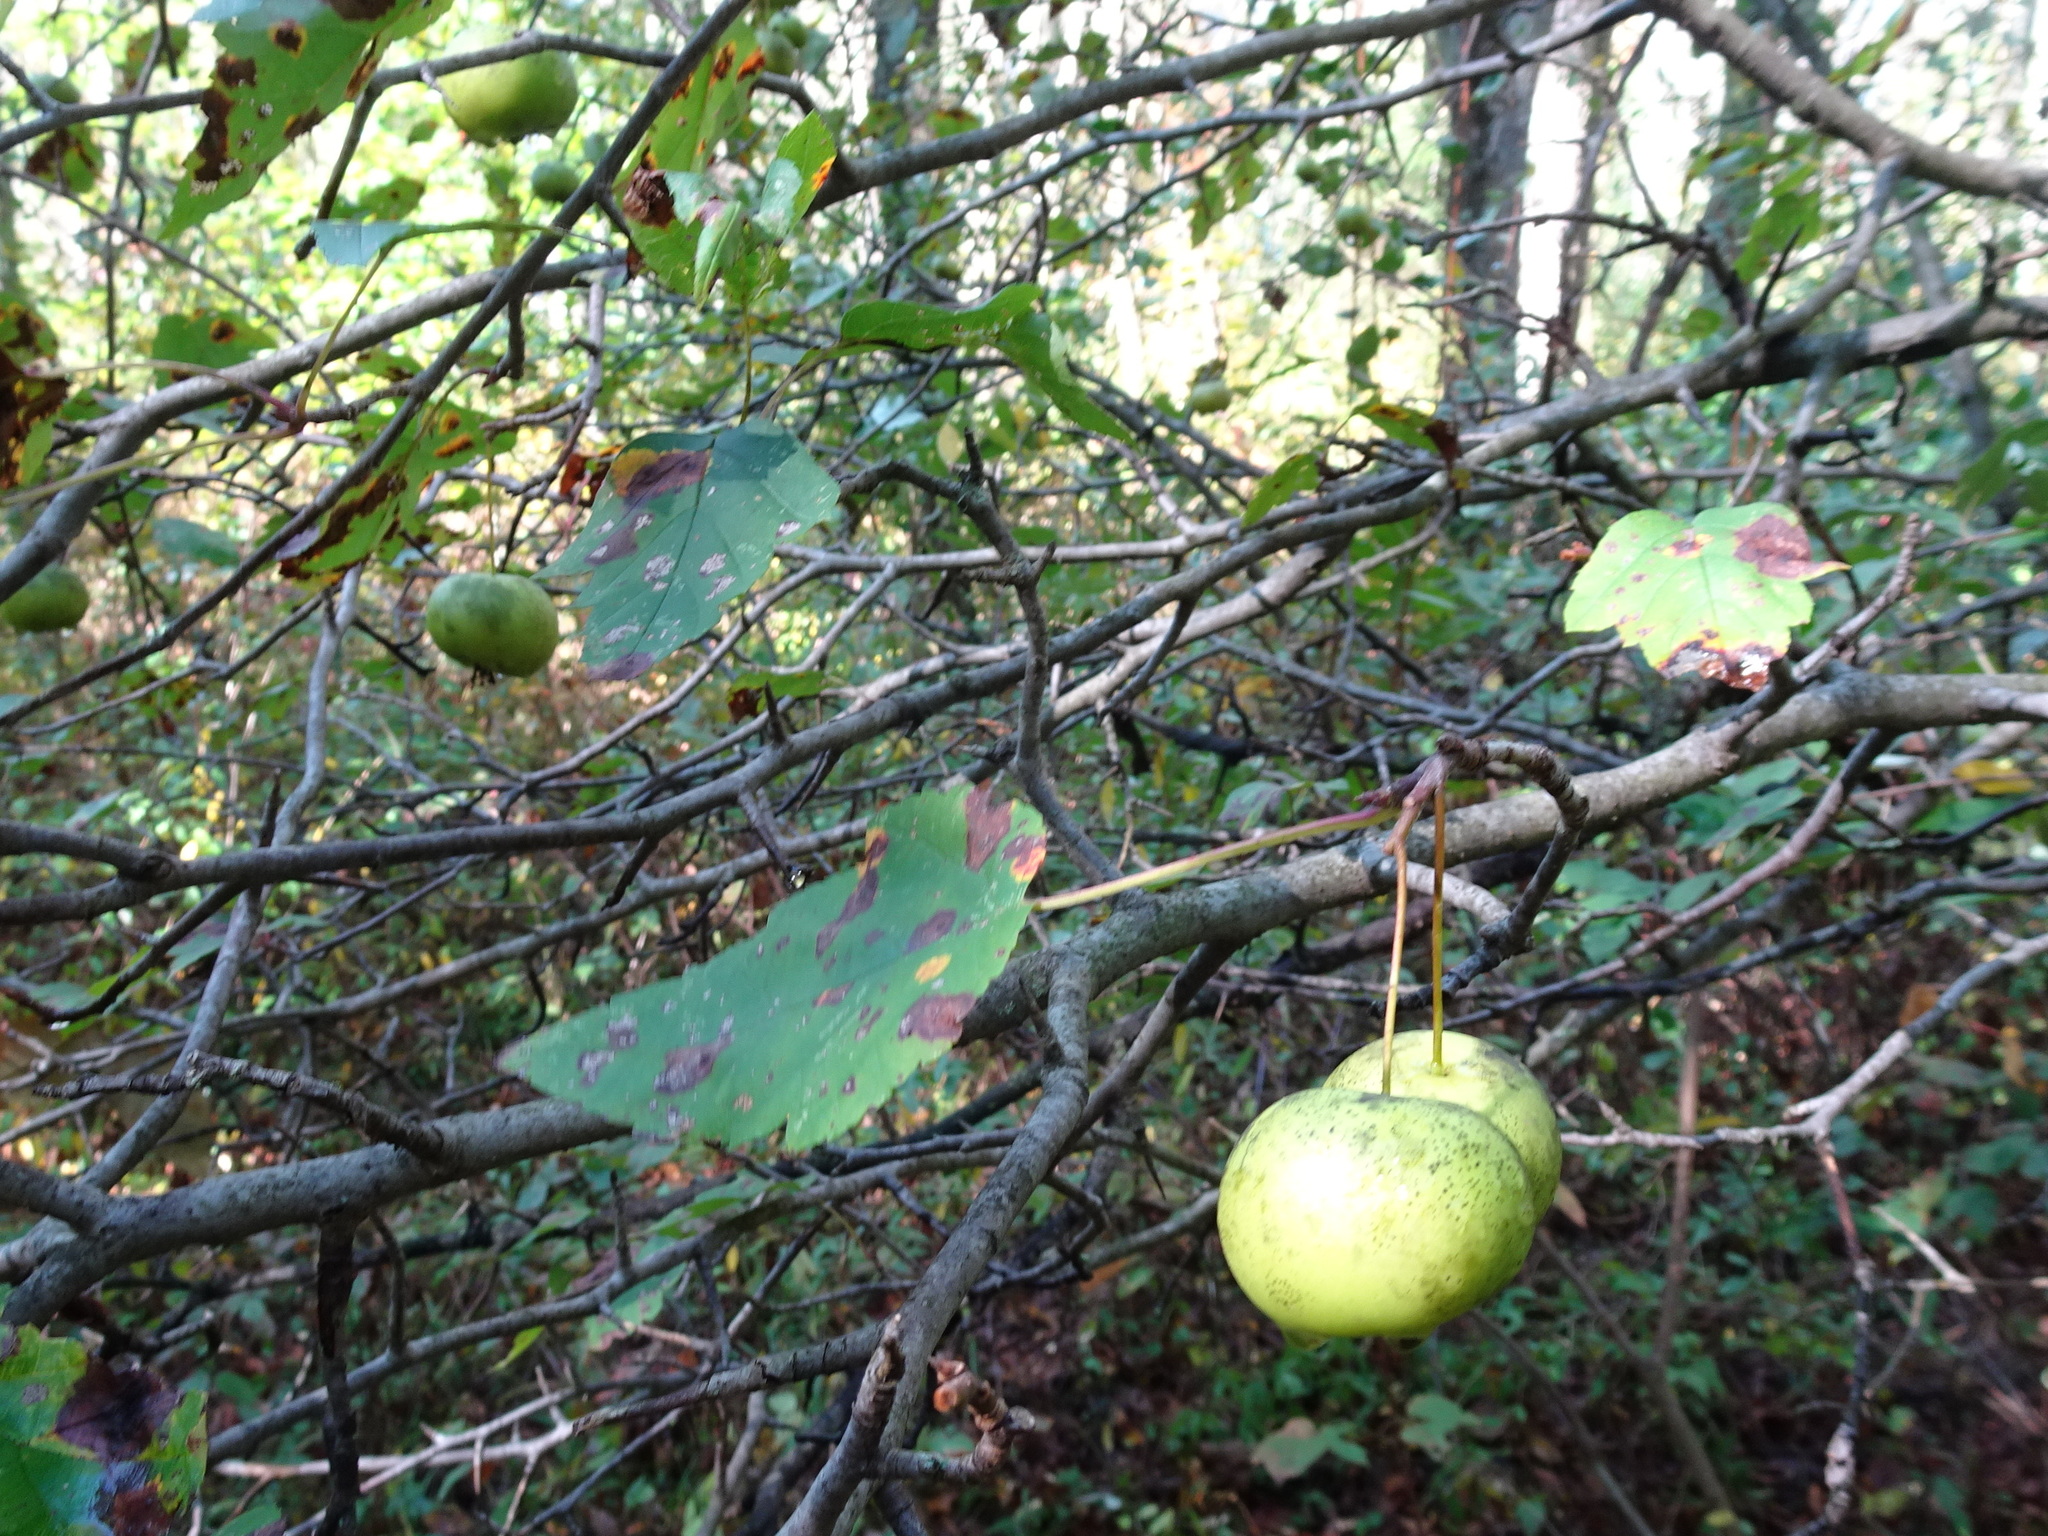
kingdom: Plantae
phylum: Tracheophyta
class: Magnoliopsida
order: Rosales
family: Rosaceae
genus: Malus
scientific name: Malus coronaria
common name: Sweet crab apple
